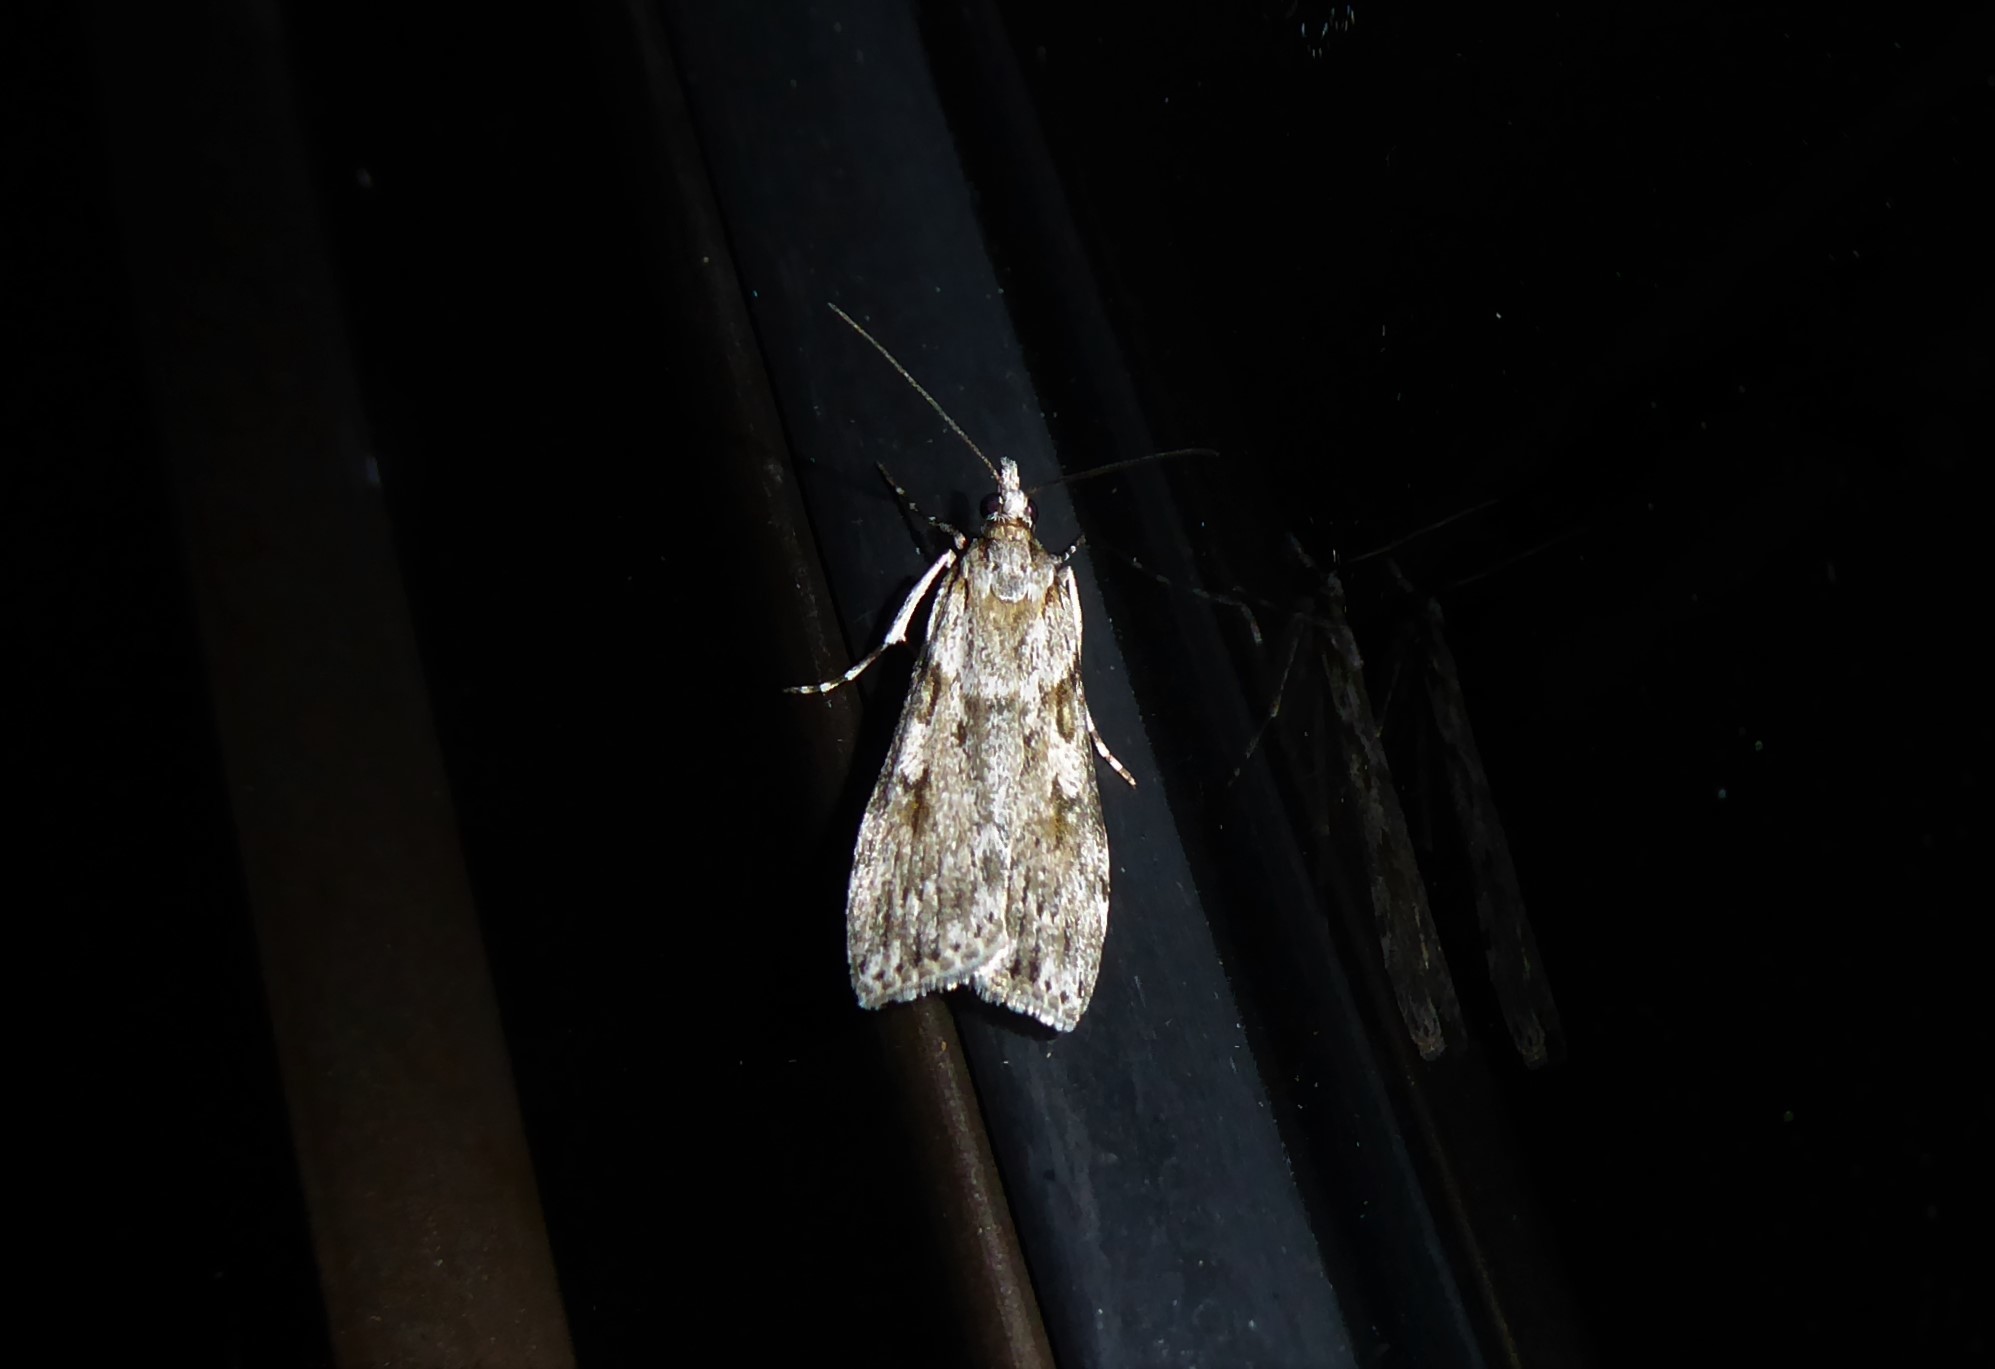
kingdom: Animalia
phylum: Arthropoda
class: Insecta
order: Lepidoptera
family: Crambidae
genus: Scoparia
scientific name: Scoparia halopis
